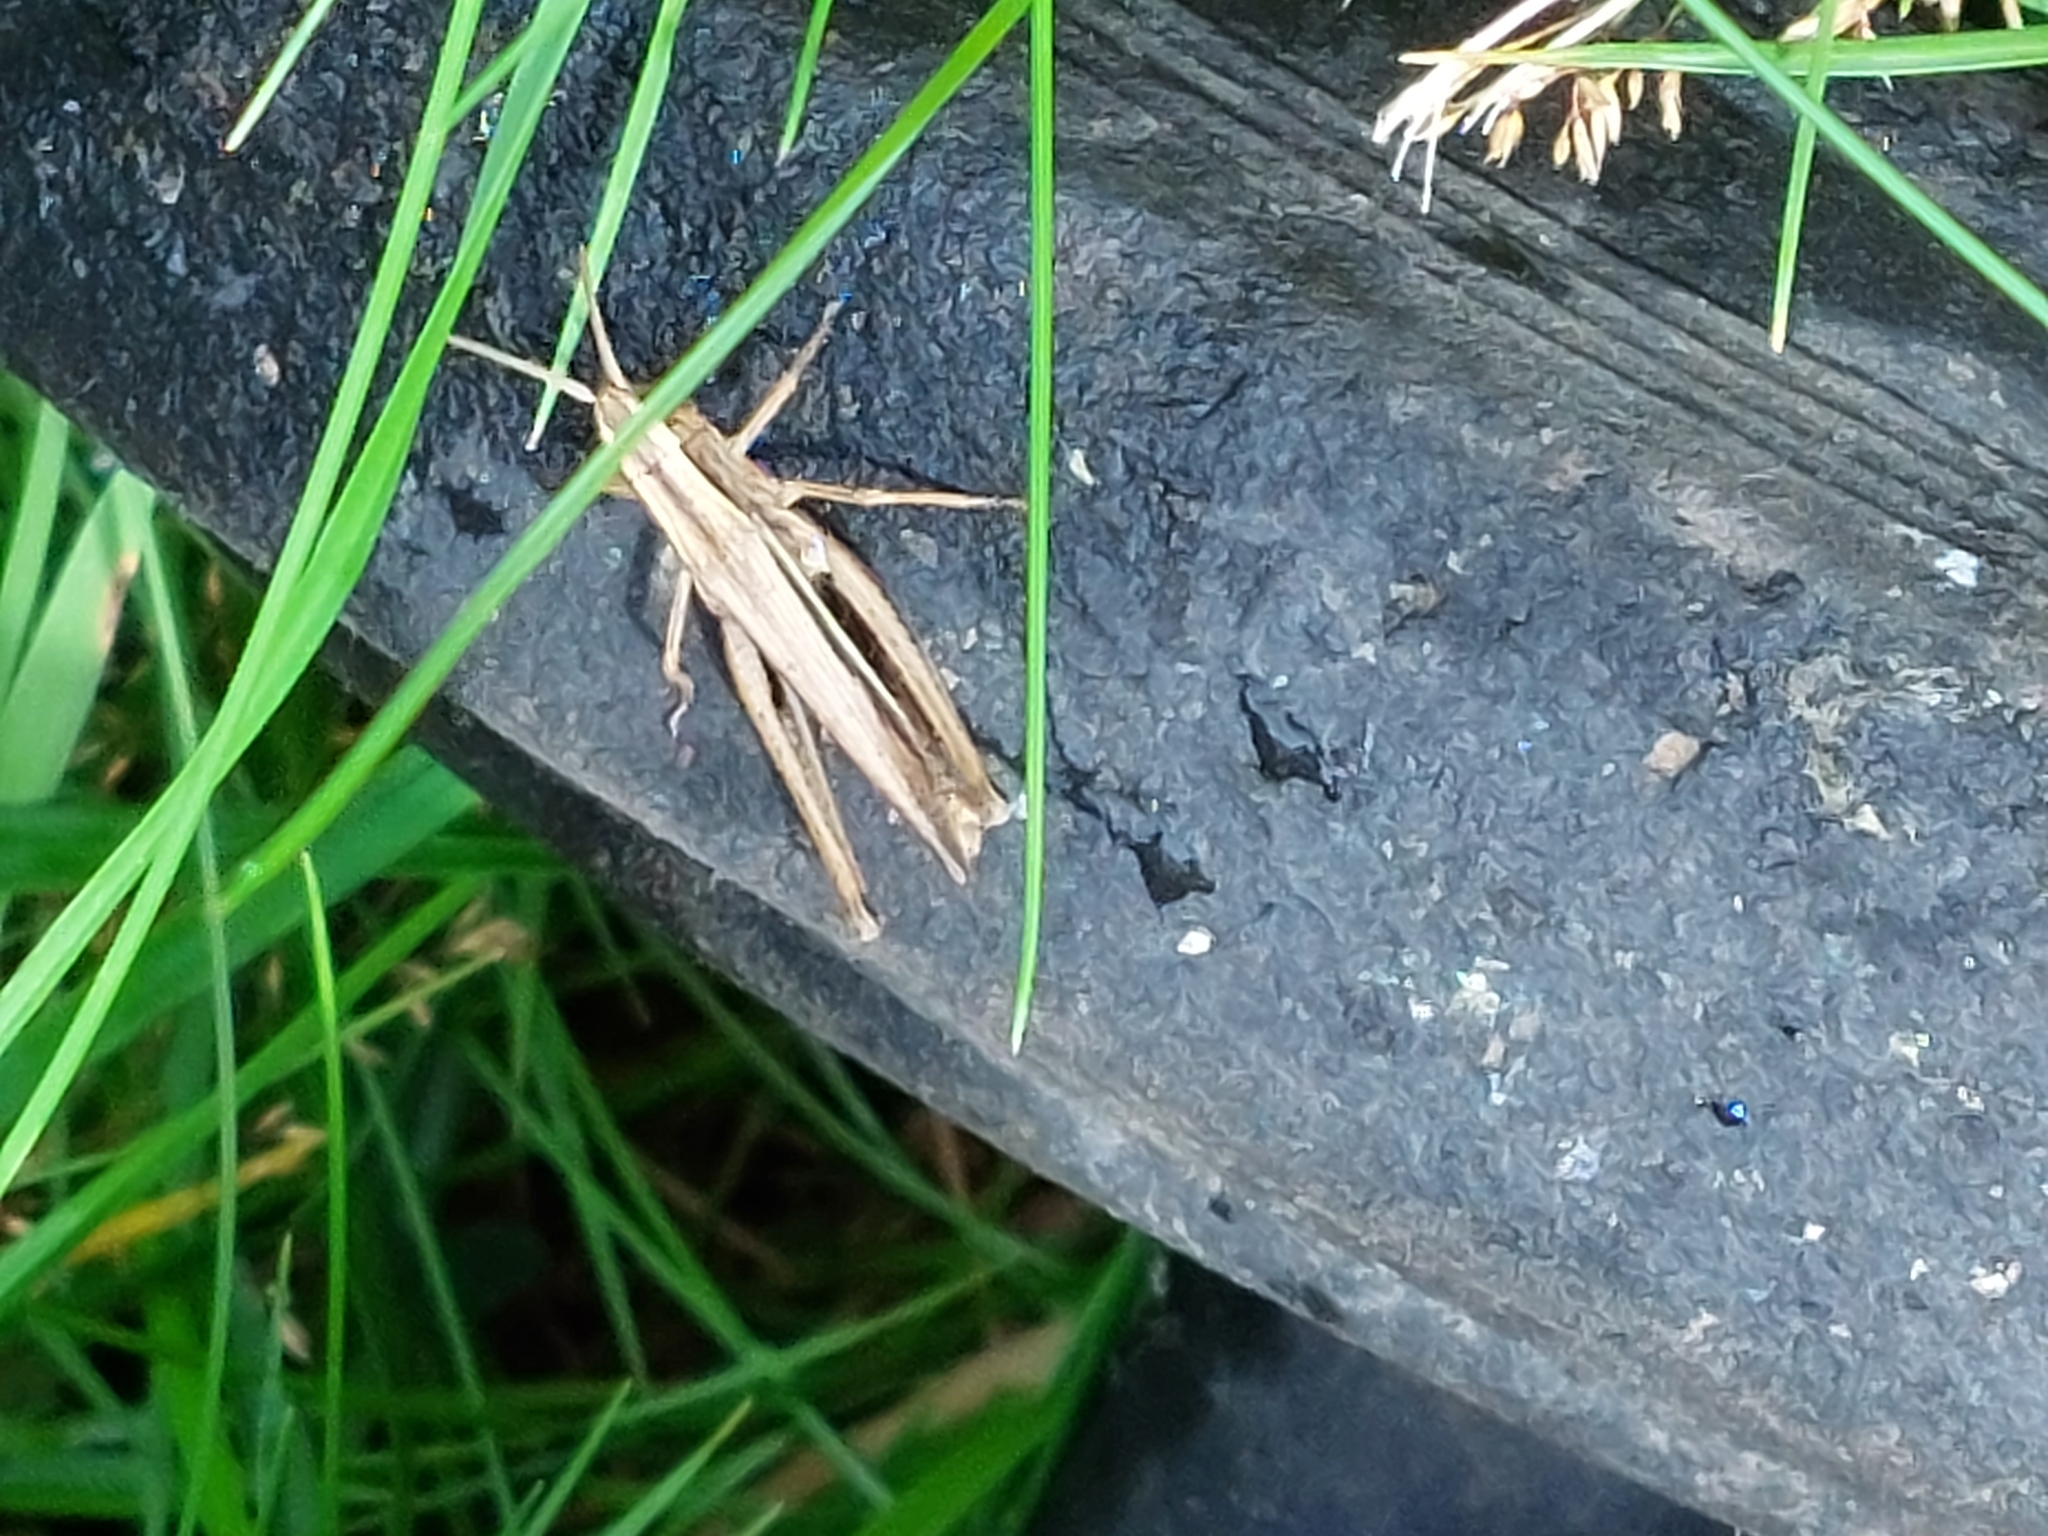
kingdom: Animalia
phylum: Arthropoda
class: Insecta
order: Orthoptera
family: Acrididae
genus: Chorthippus
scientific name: Chorthippus albomarginatus
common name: Lesser marsh grasshopper
